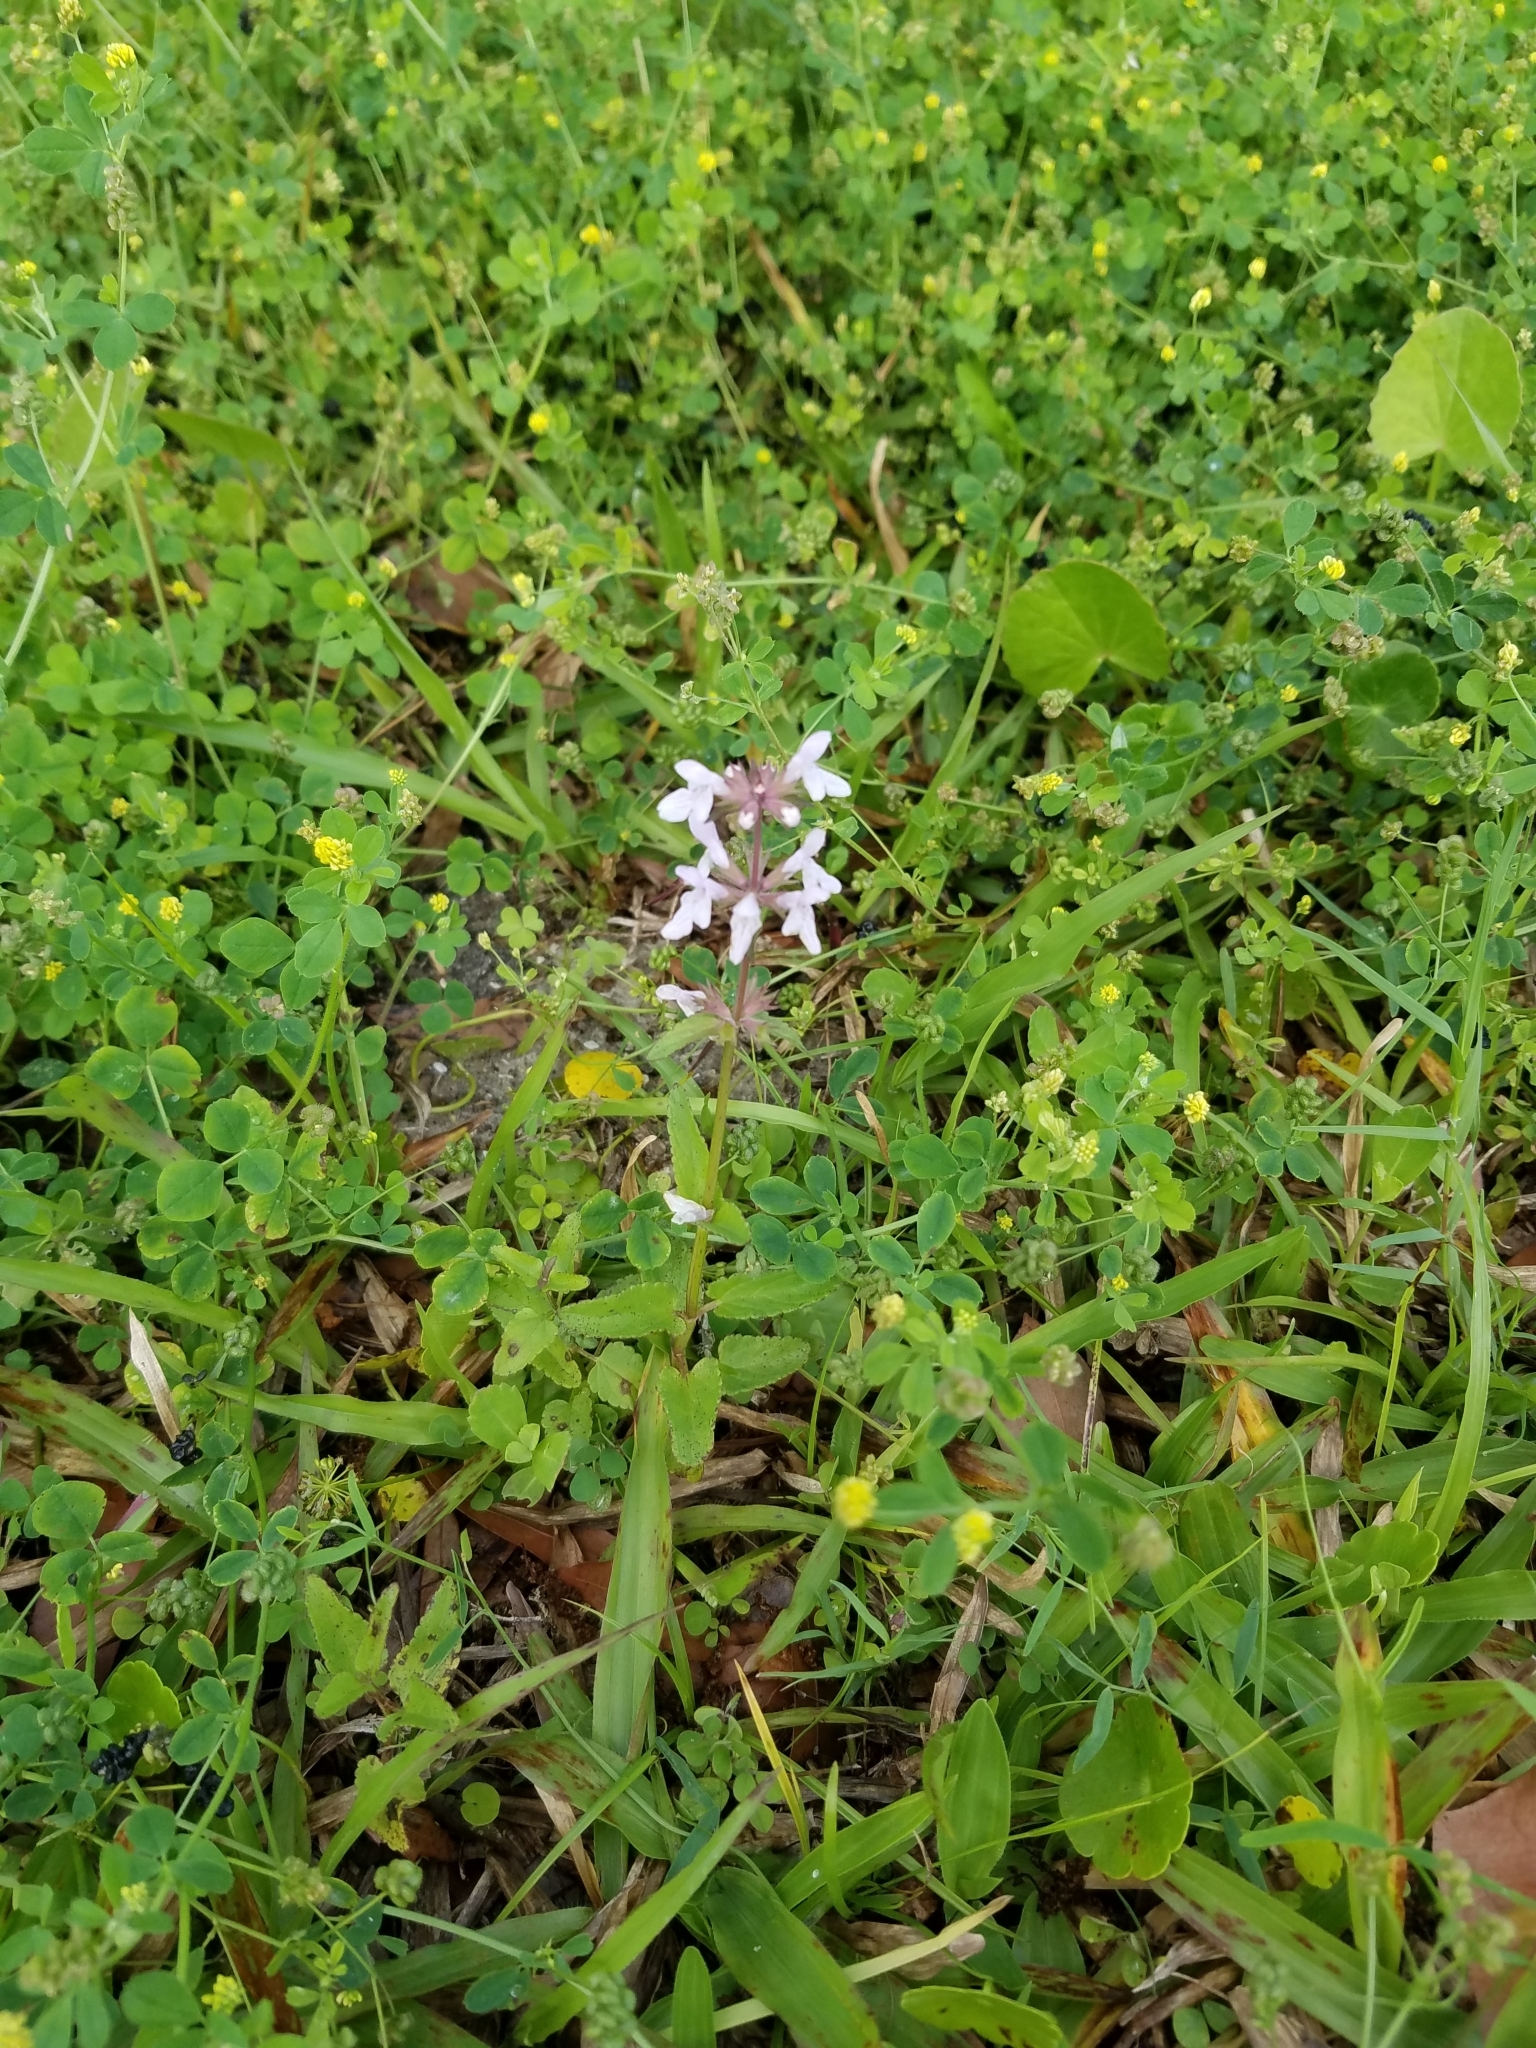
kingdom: Plantae
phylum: Tracheophyta
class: Magnoliopsida
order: Lamiales
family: Lamiaceae
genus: Stachys
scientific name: Stachys floridana
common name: Florida betony
